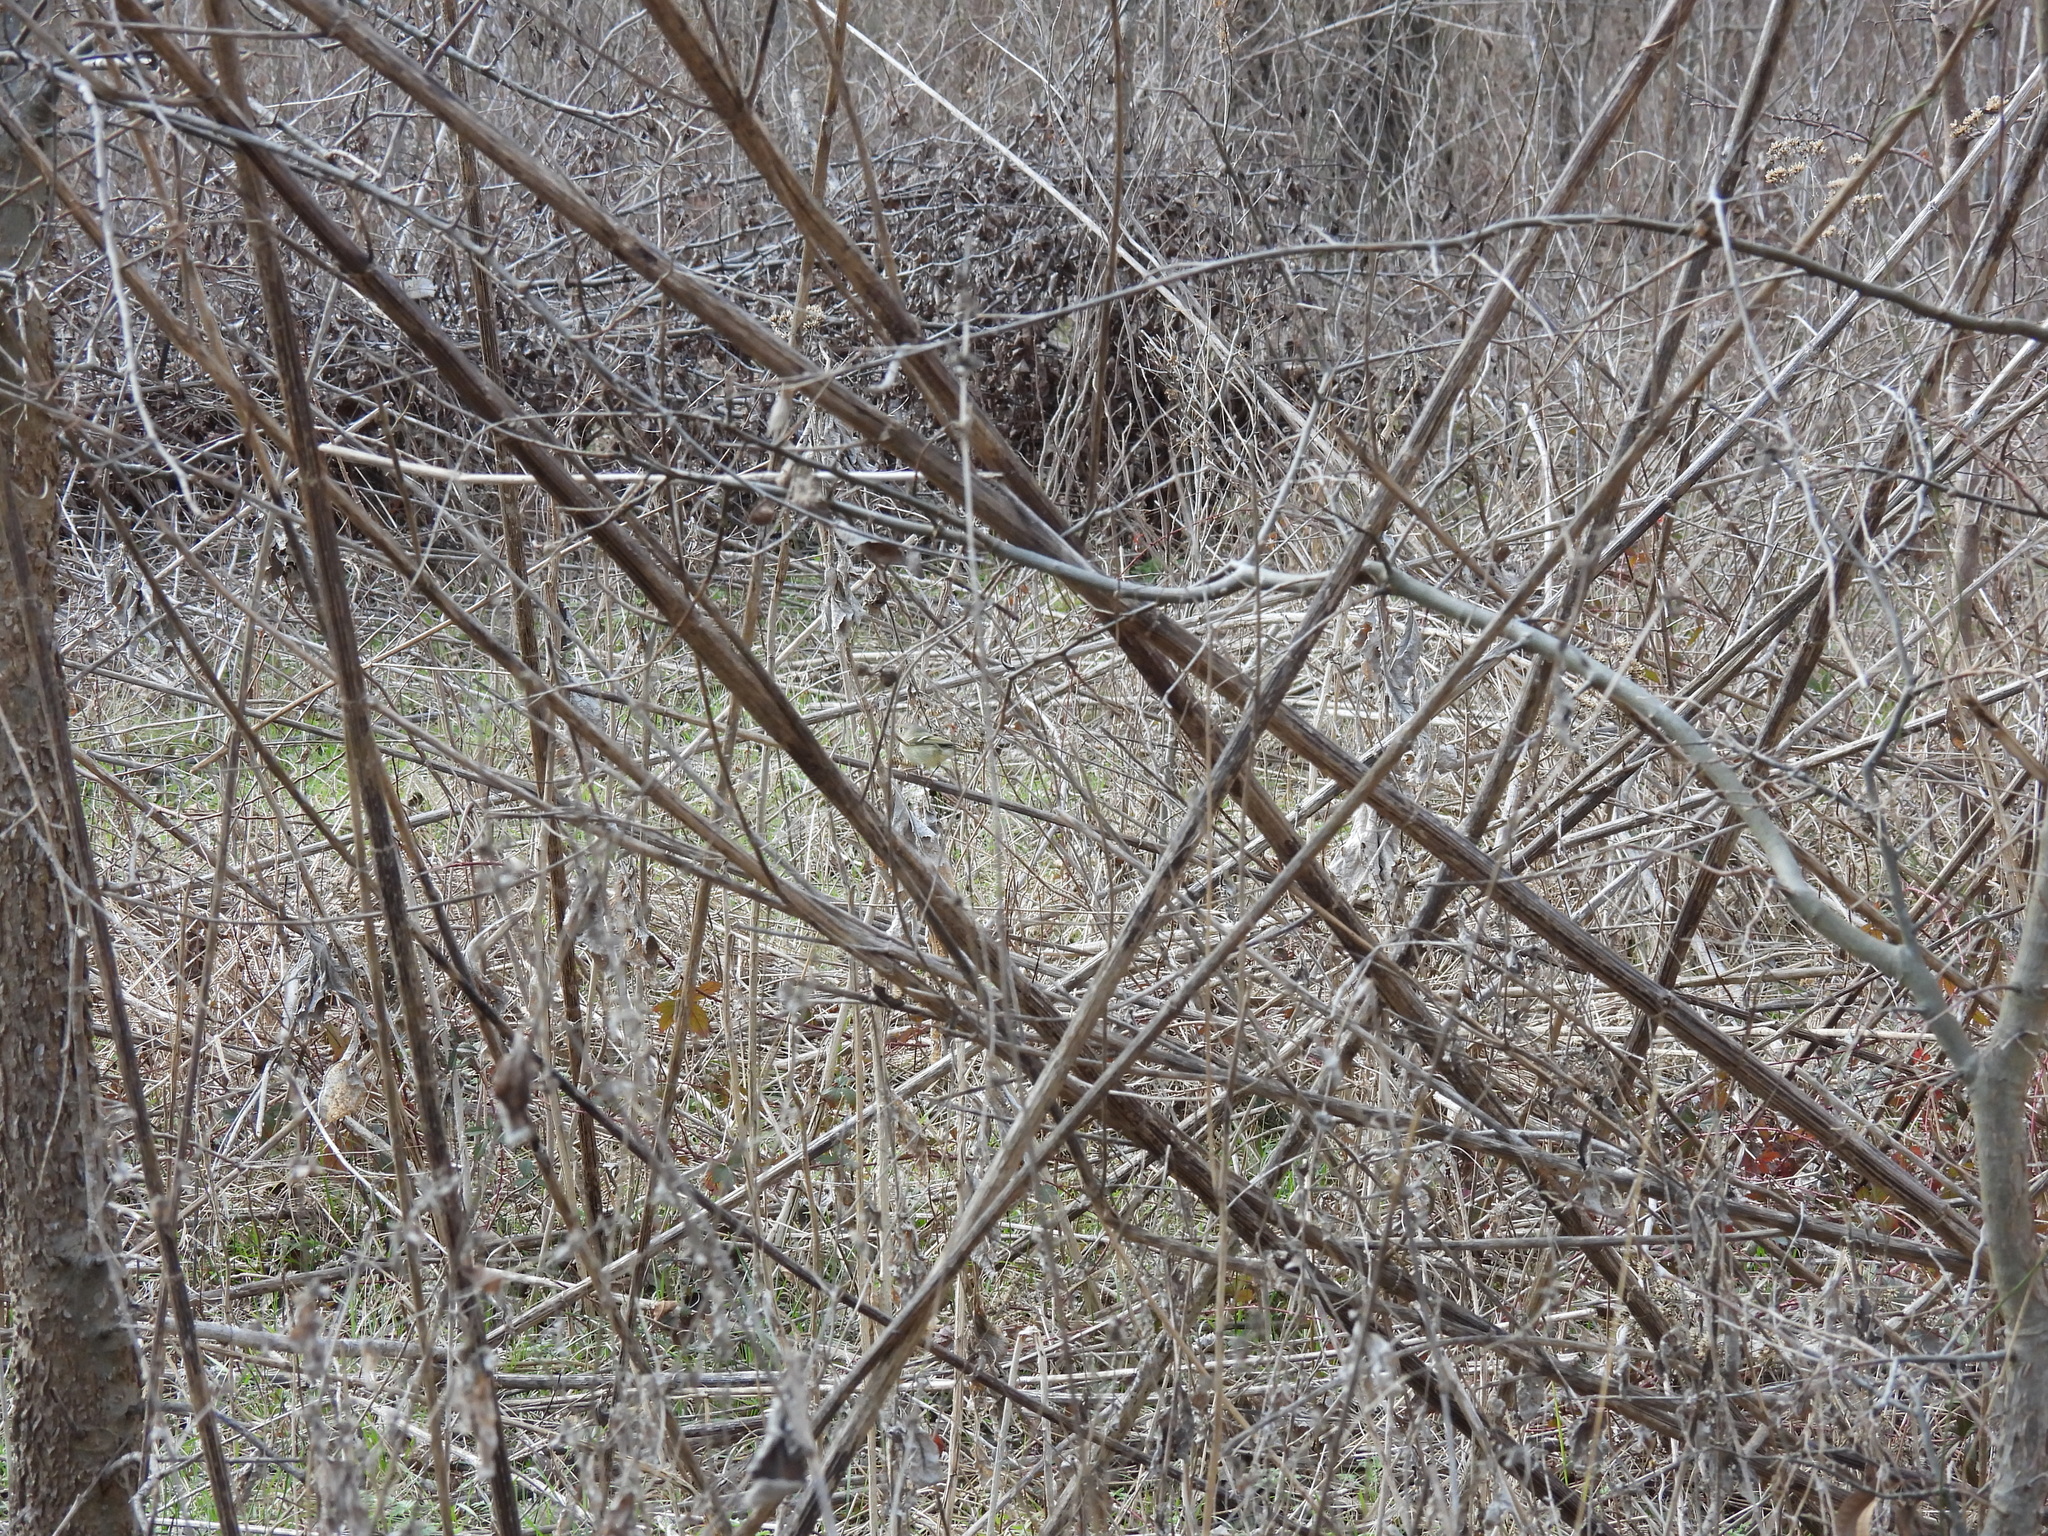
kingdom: Animalia
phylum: Chordata
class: Aves
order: Passeriformes
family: Regulidae
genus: Regulus
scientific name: Regulus calendula
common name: Ruby-crowned kinglet
